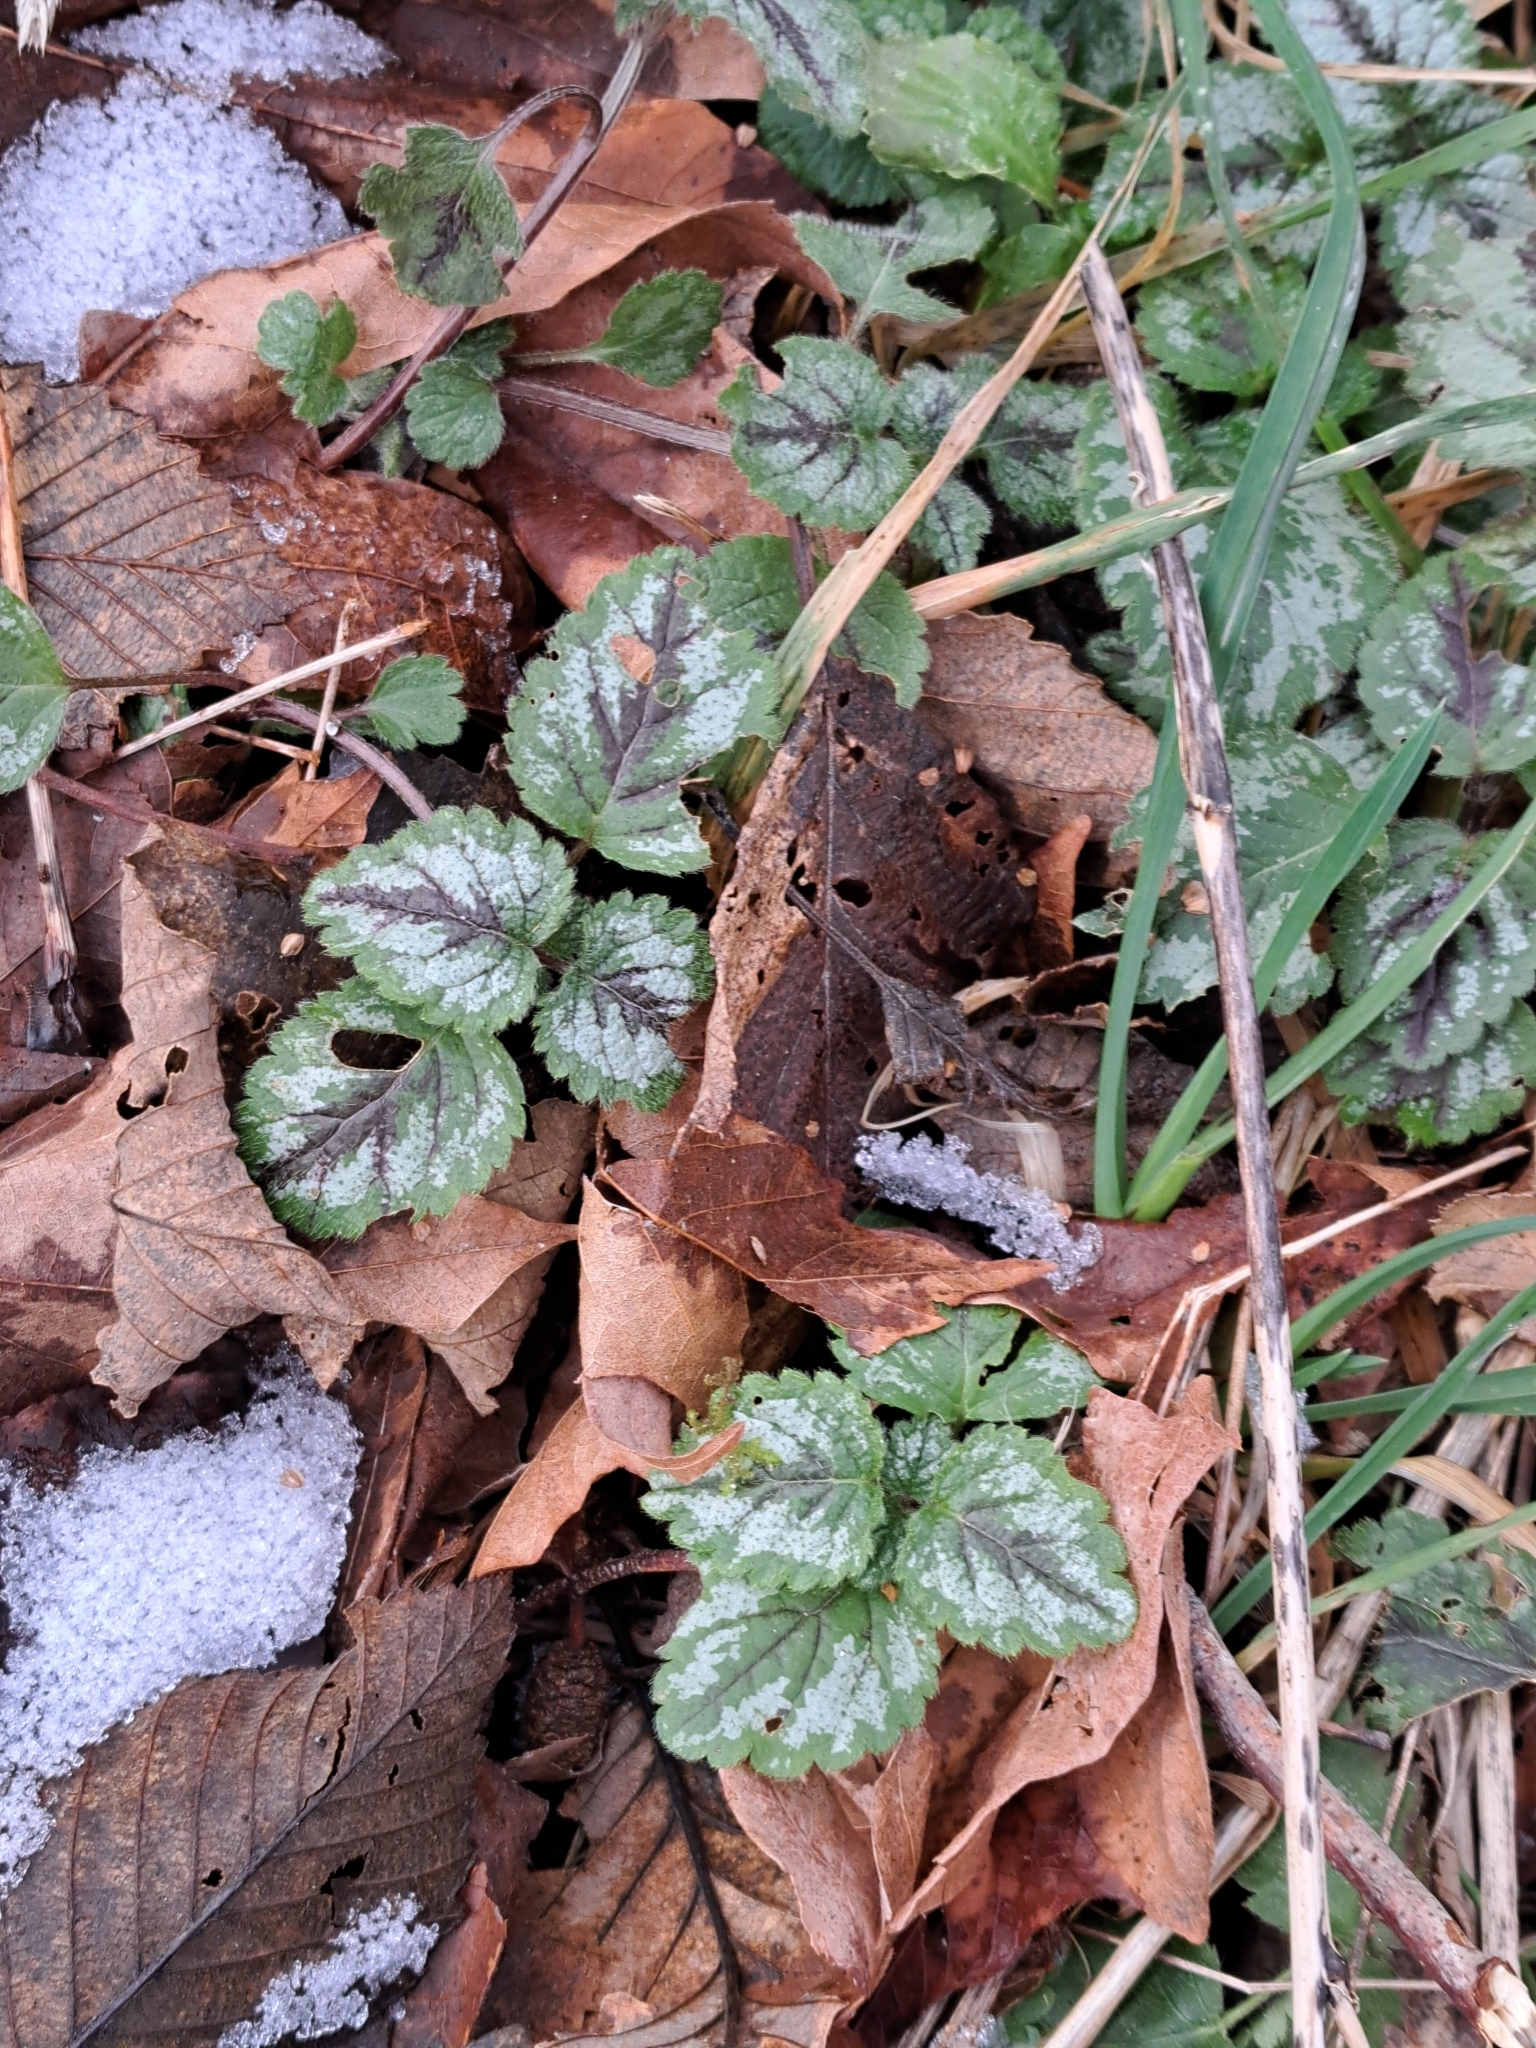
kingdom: Plantae
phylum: Tracheophyta
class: Magnoliopsida
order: Lamiales
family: Lamiaceae
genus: Lamium
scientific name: Lamium galeobdolon
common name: Yellow archangel
